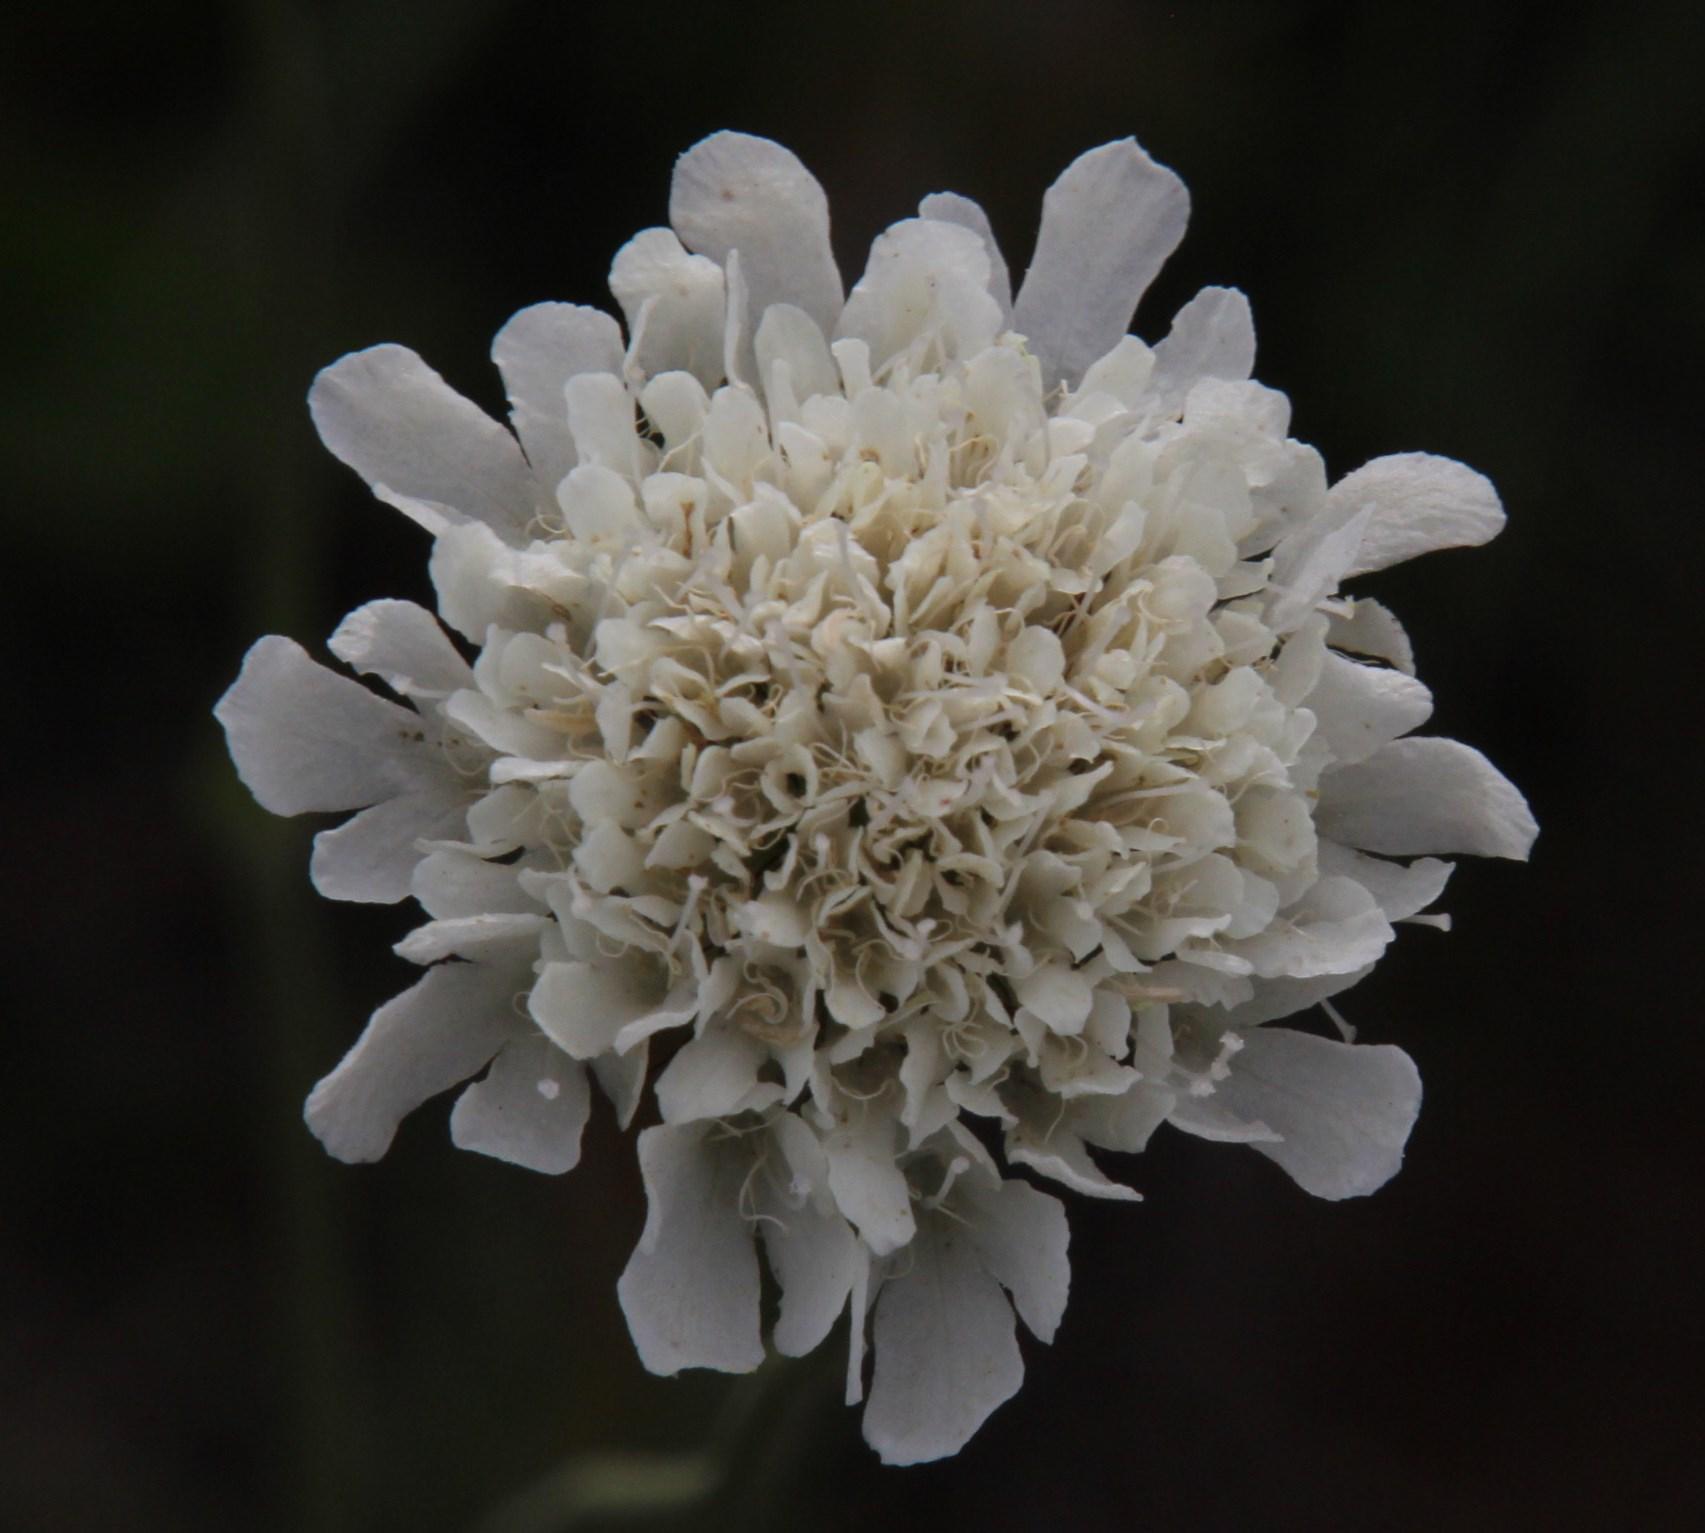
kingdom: Plantae
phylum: Tracheophyta
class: Magnoliopsida
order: Dipsacales
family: Caprifoliaceae
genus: Scabiosa
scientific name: Scabiosa columbaria
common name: Small scabious
